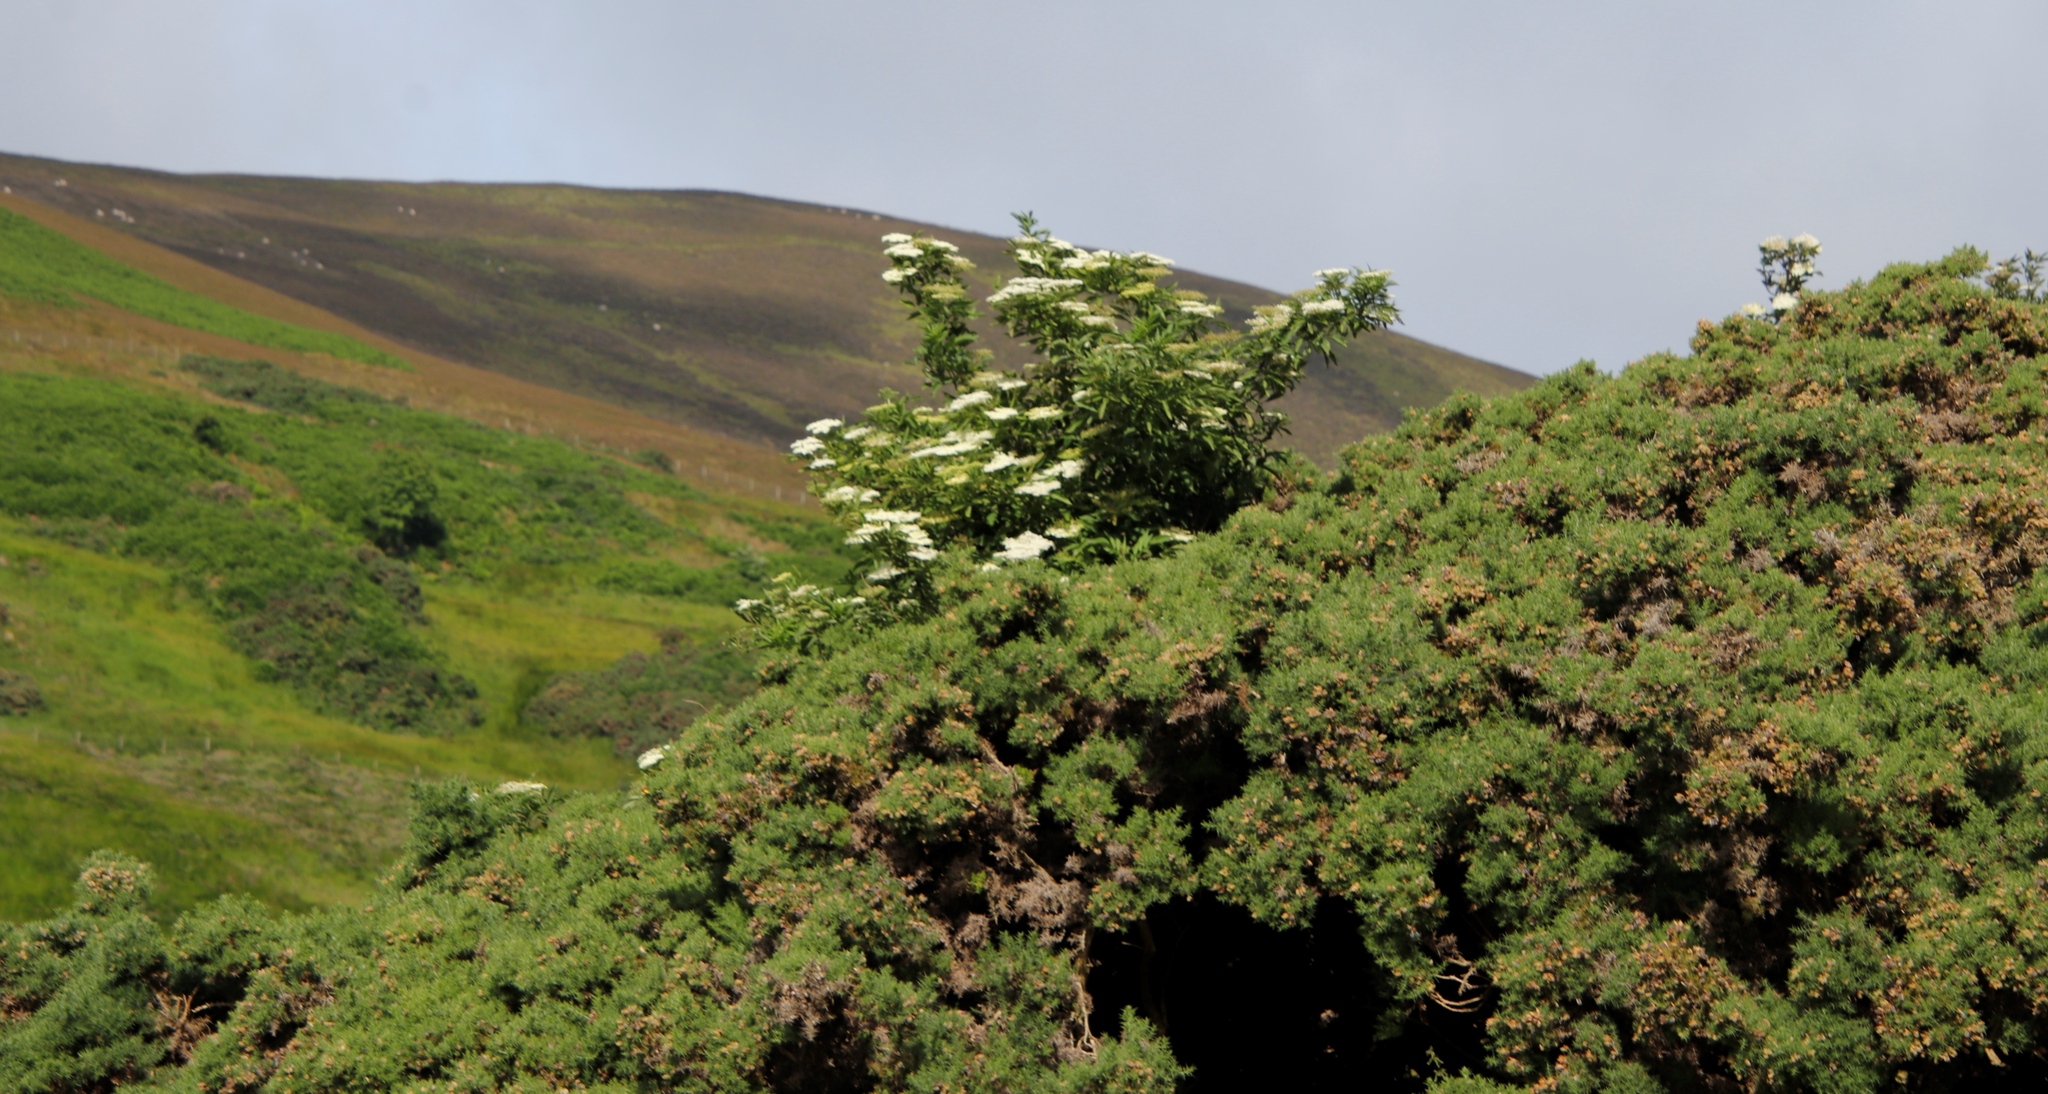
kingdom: Plantae
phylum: Tracheophyta
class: Magnoliopsida
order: Fabales
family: Fabaceae
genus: Ulex
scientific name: Ulex europaeus
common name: Common gorse
